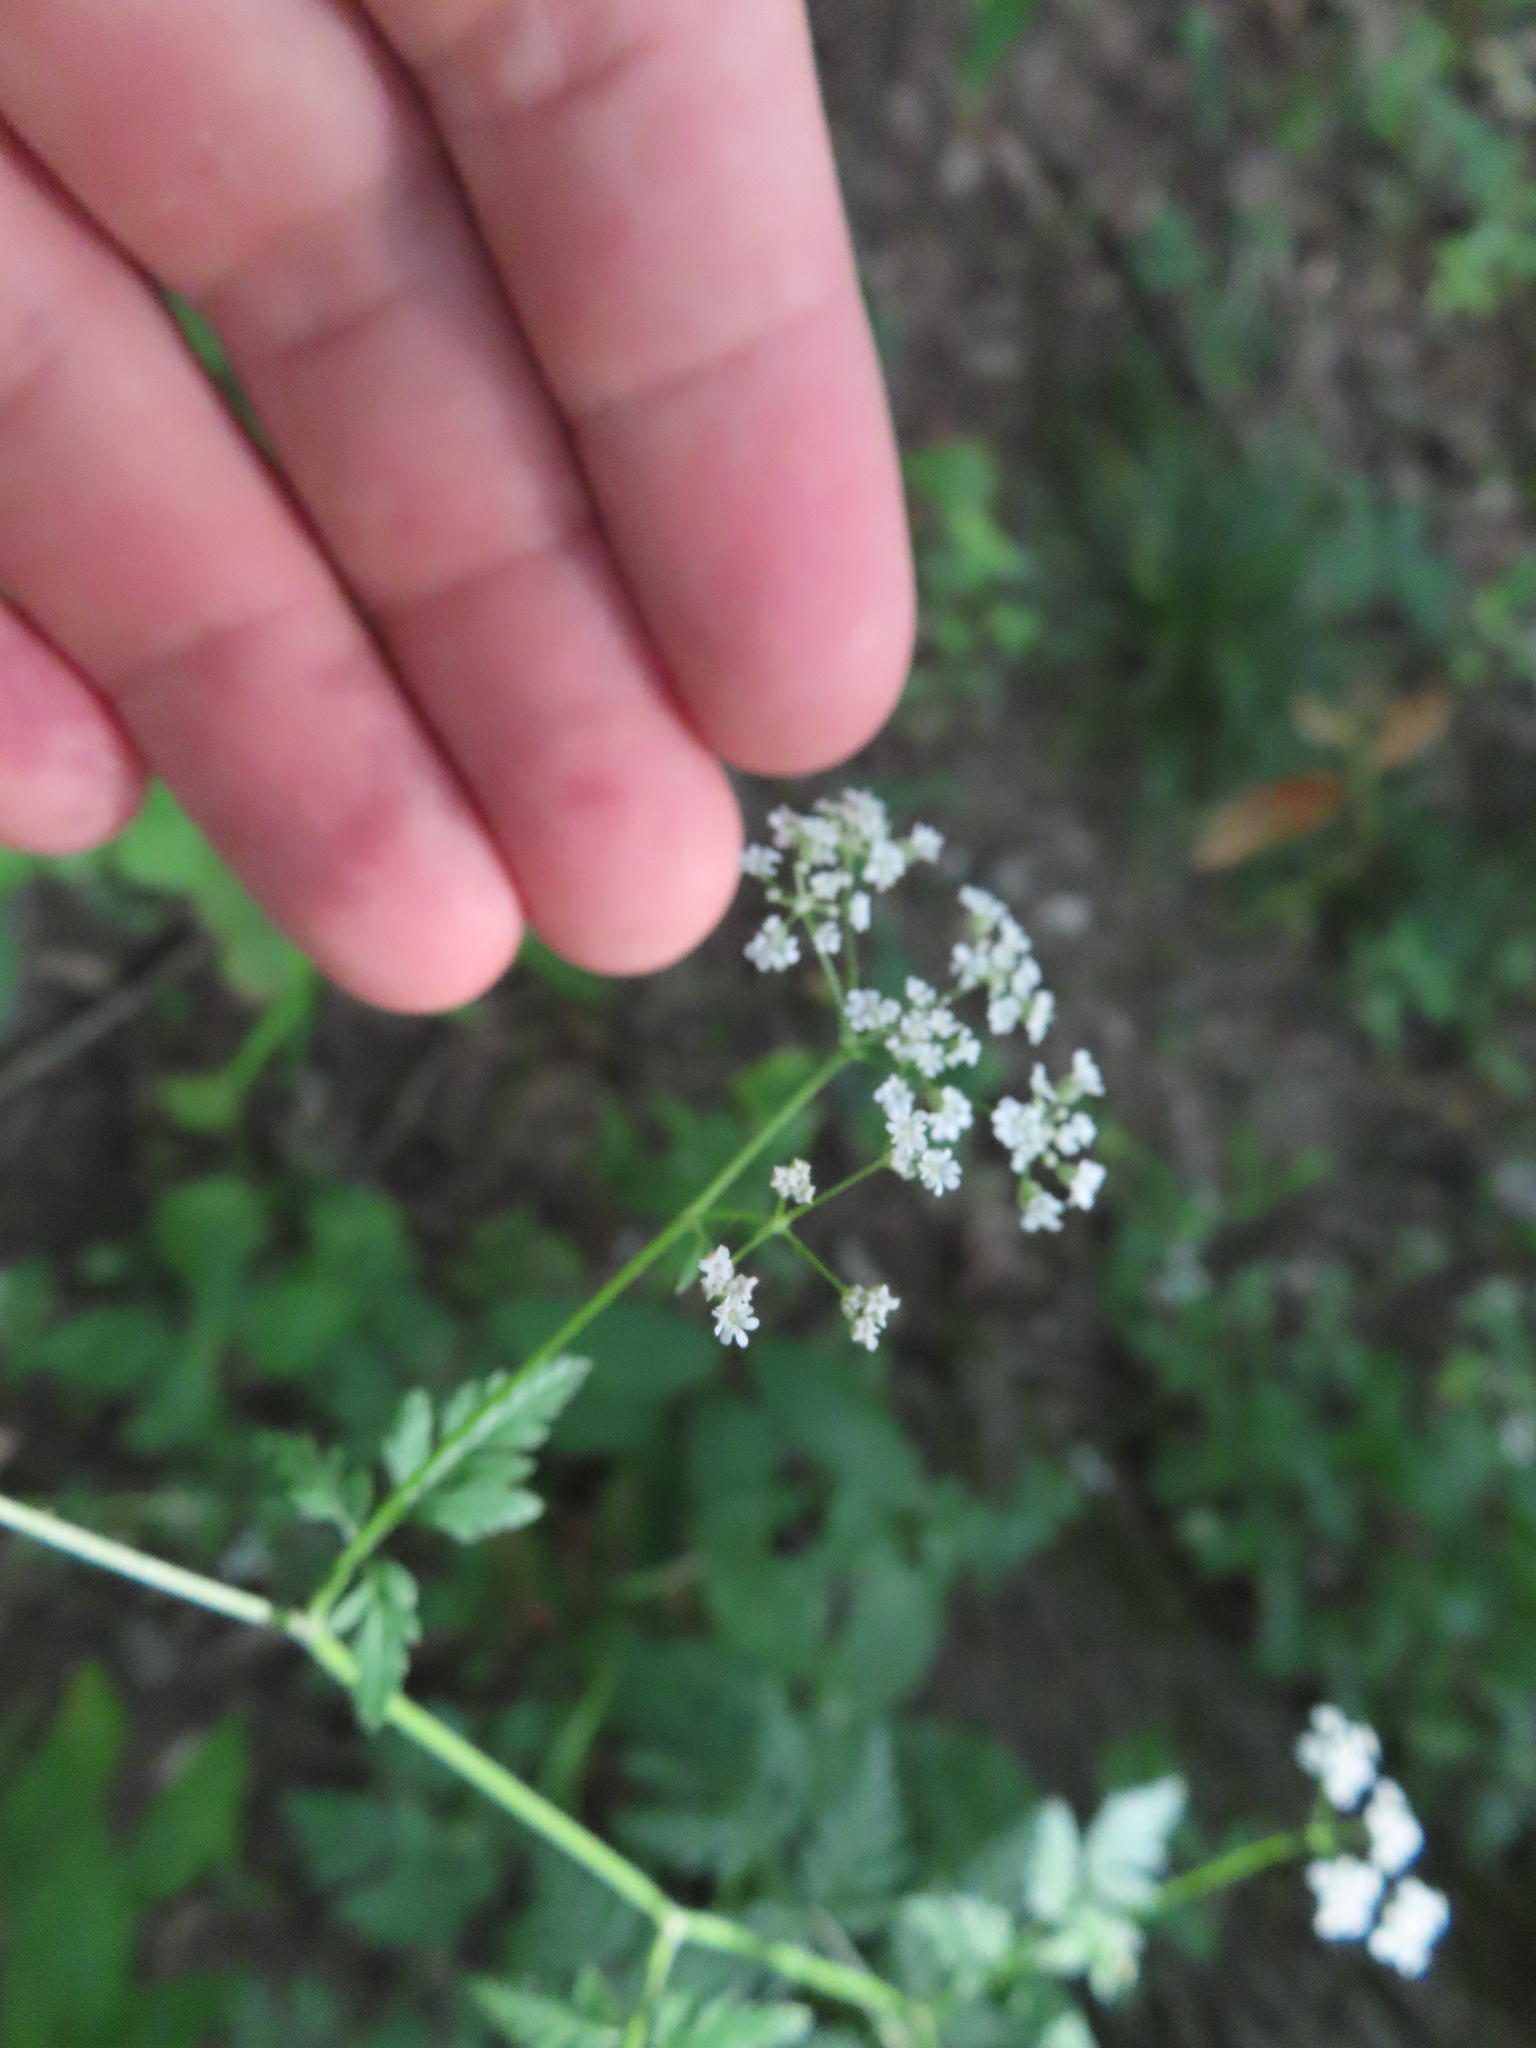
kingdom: Plantae
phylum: Tracheophyta
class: Magnoliopsida
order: Apiales
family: Apiaceae
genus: Torilis
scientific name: Torilis japonica
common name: Upright hedge-parsley
